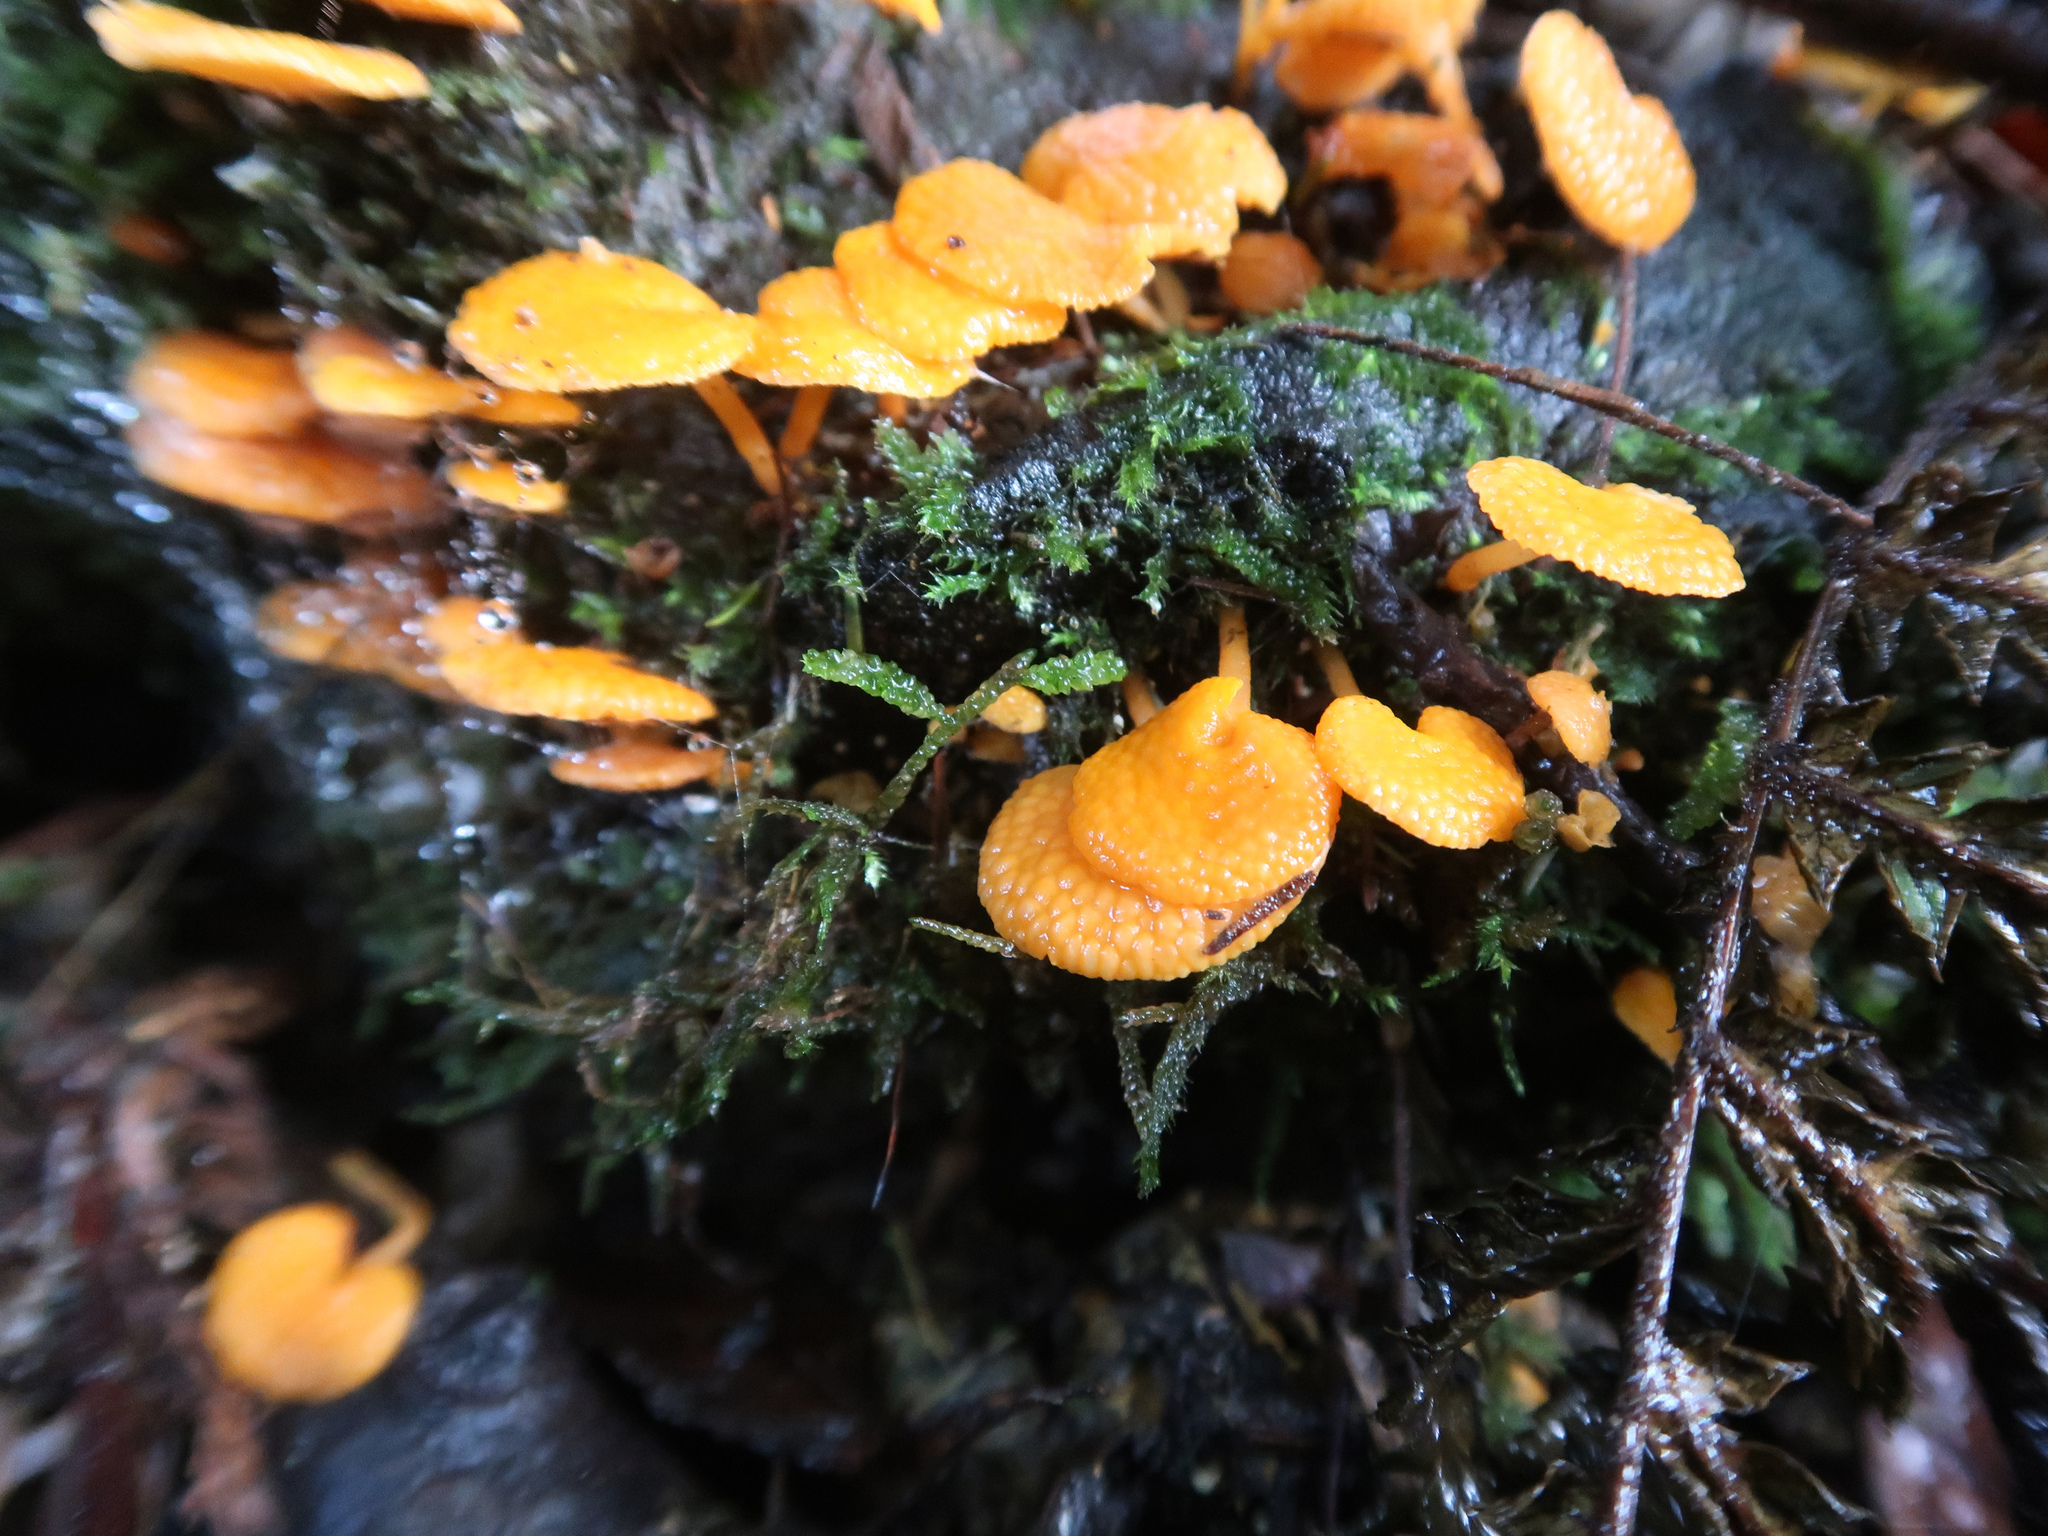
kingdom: Fungi
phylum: Basidiomycota
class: Agaricomycetes
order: Agaricales
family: Mycenaceae
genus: Favolaschia
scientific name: Favolaschia claudopus
